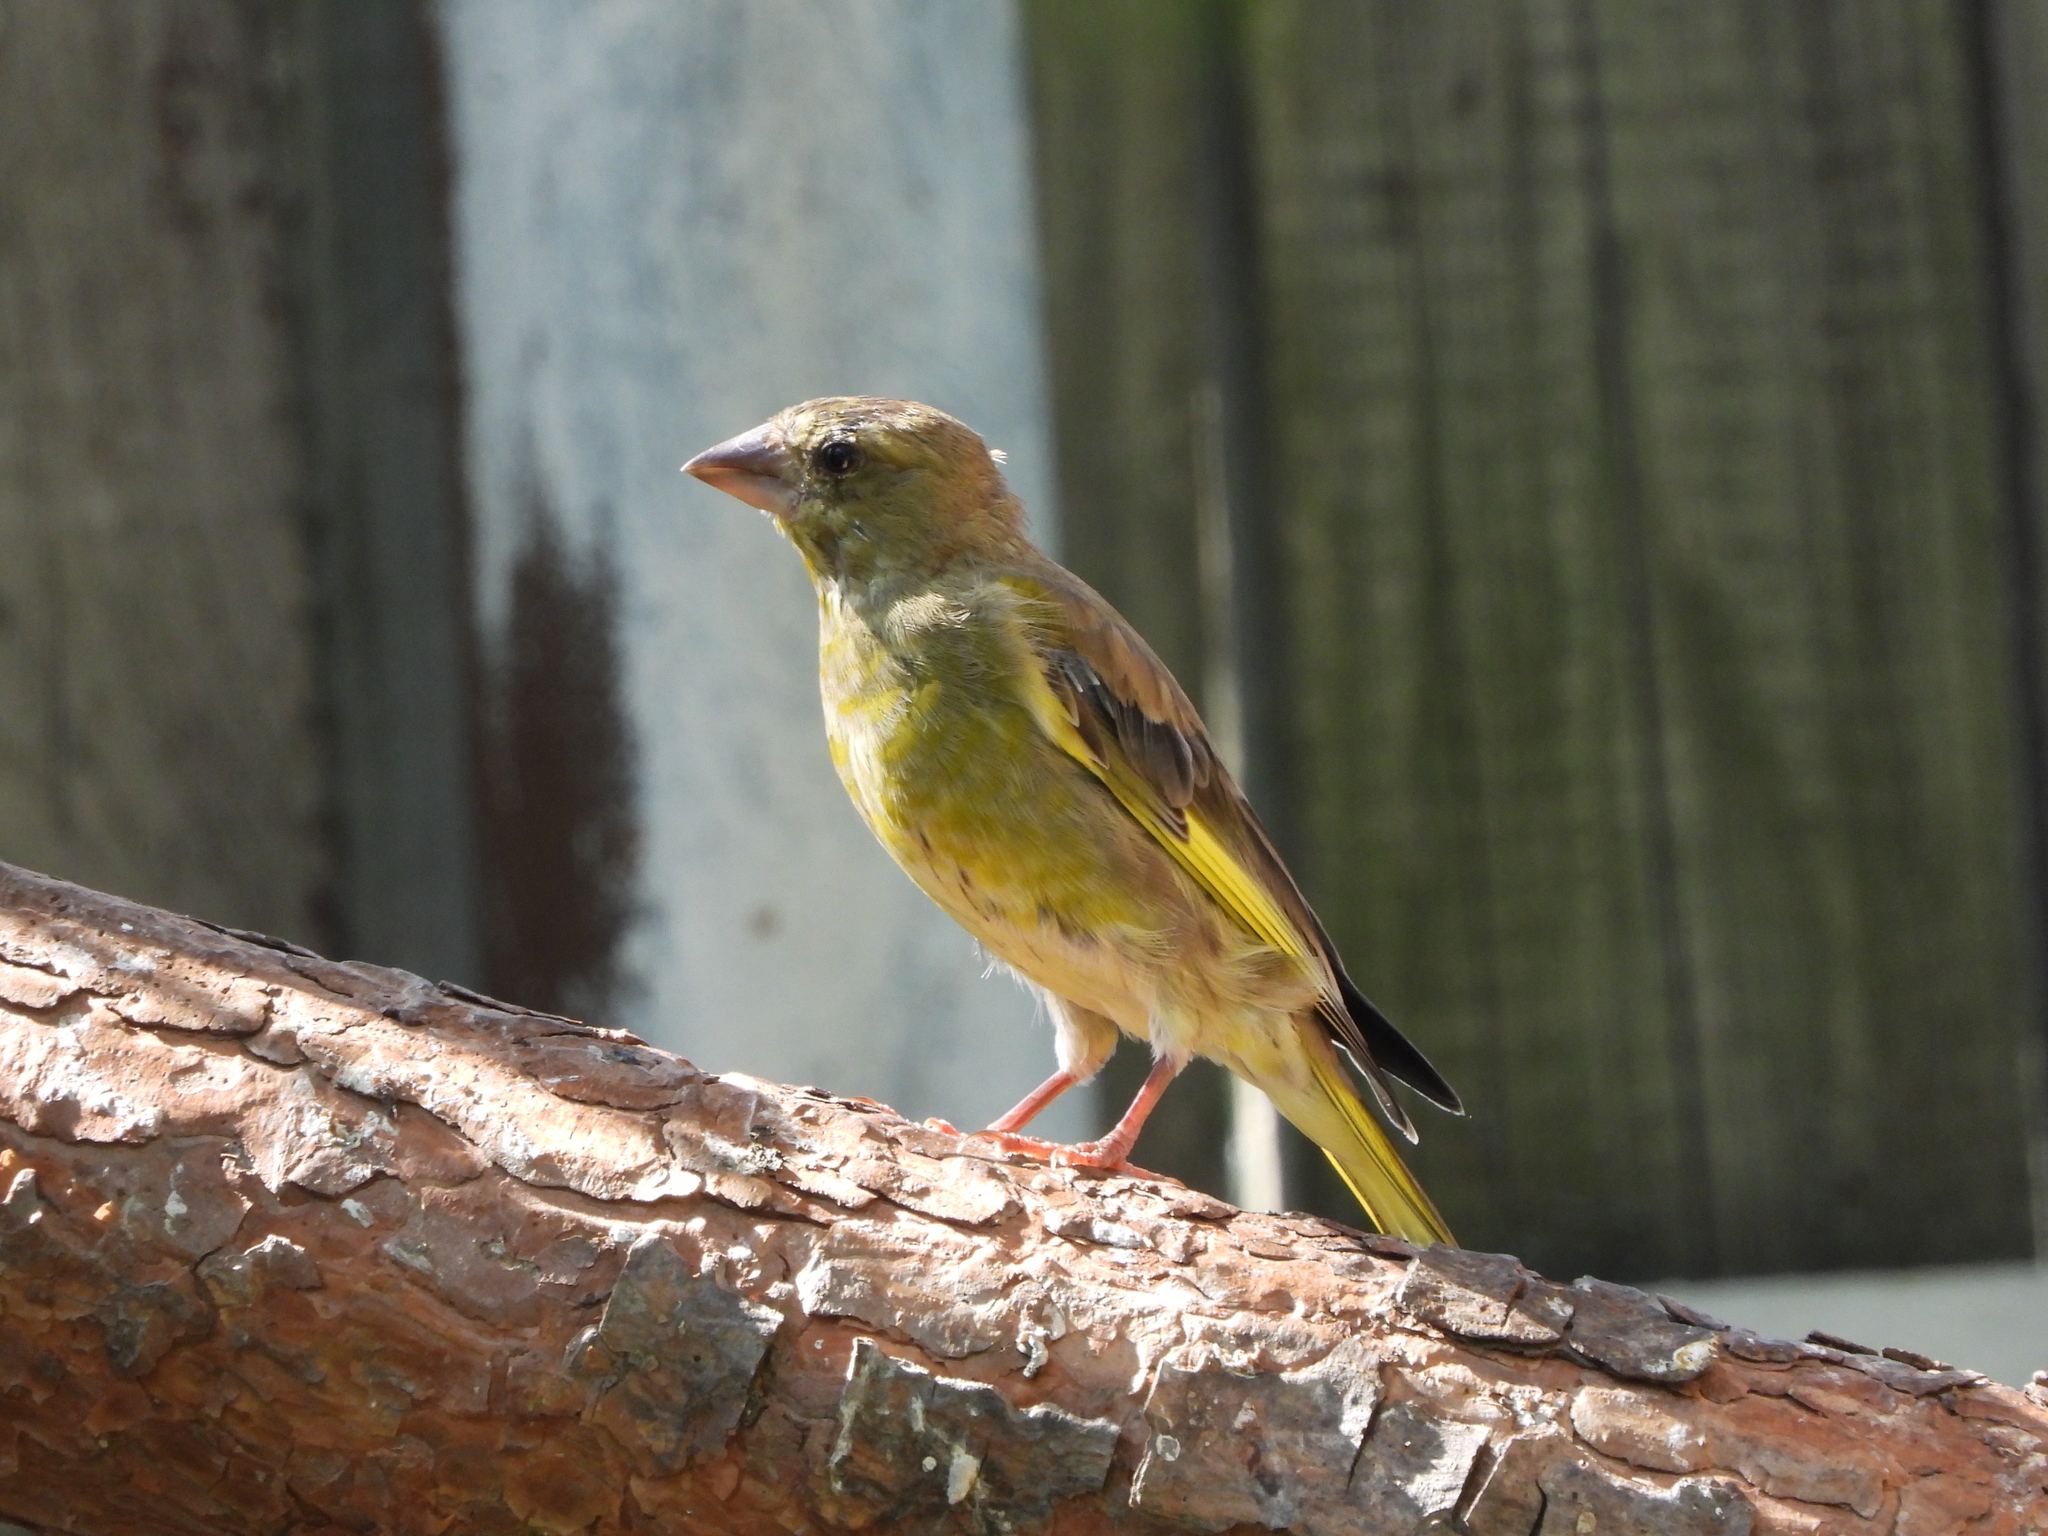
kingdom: Plantae
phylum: Tracheophyta
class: Liliopsida
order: Poales
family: Poaceae
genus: Chloris
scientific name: Chloris chloris
